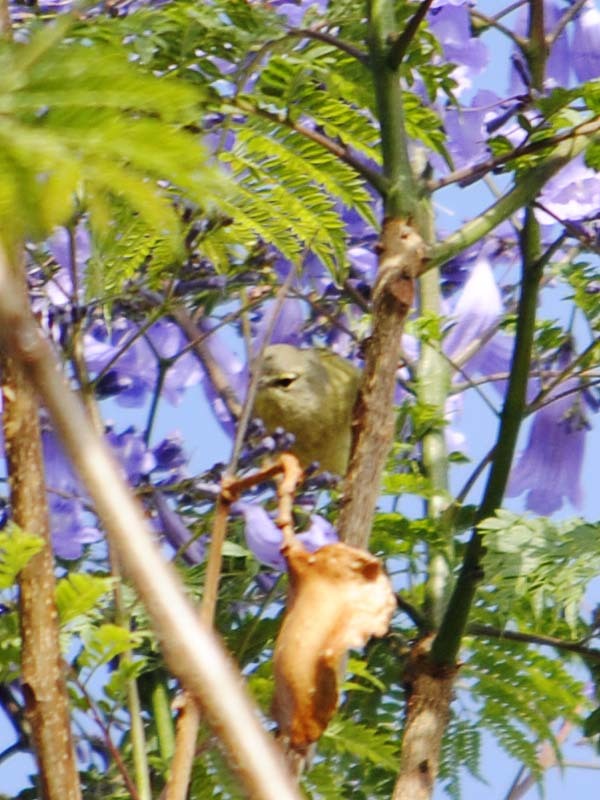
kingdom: Animalia
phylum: Chordata
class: Aves
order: Passeriformes
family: Parulidae
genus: Leiothlypis
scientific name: Leiothlypis celata
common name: Orange-crowned warbler
